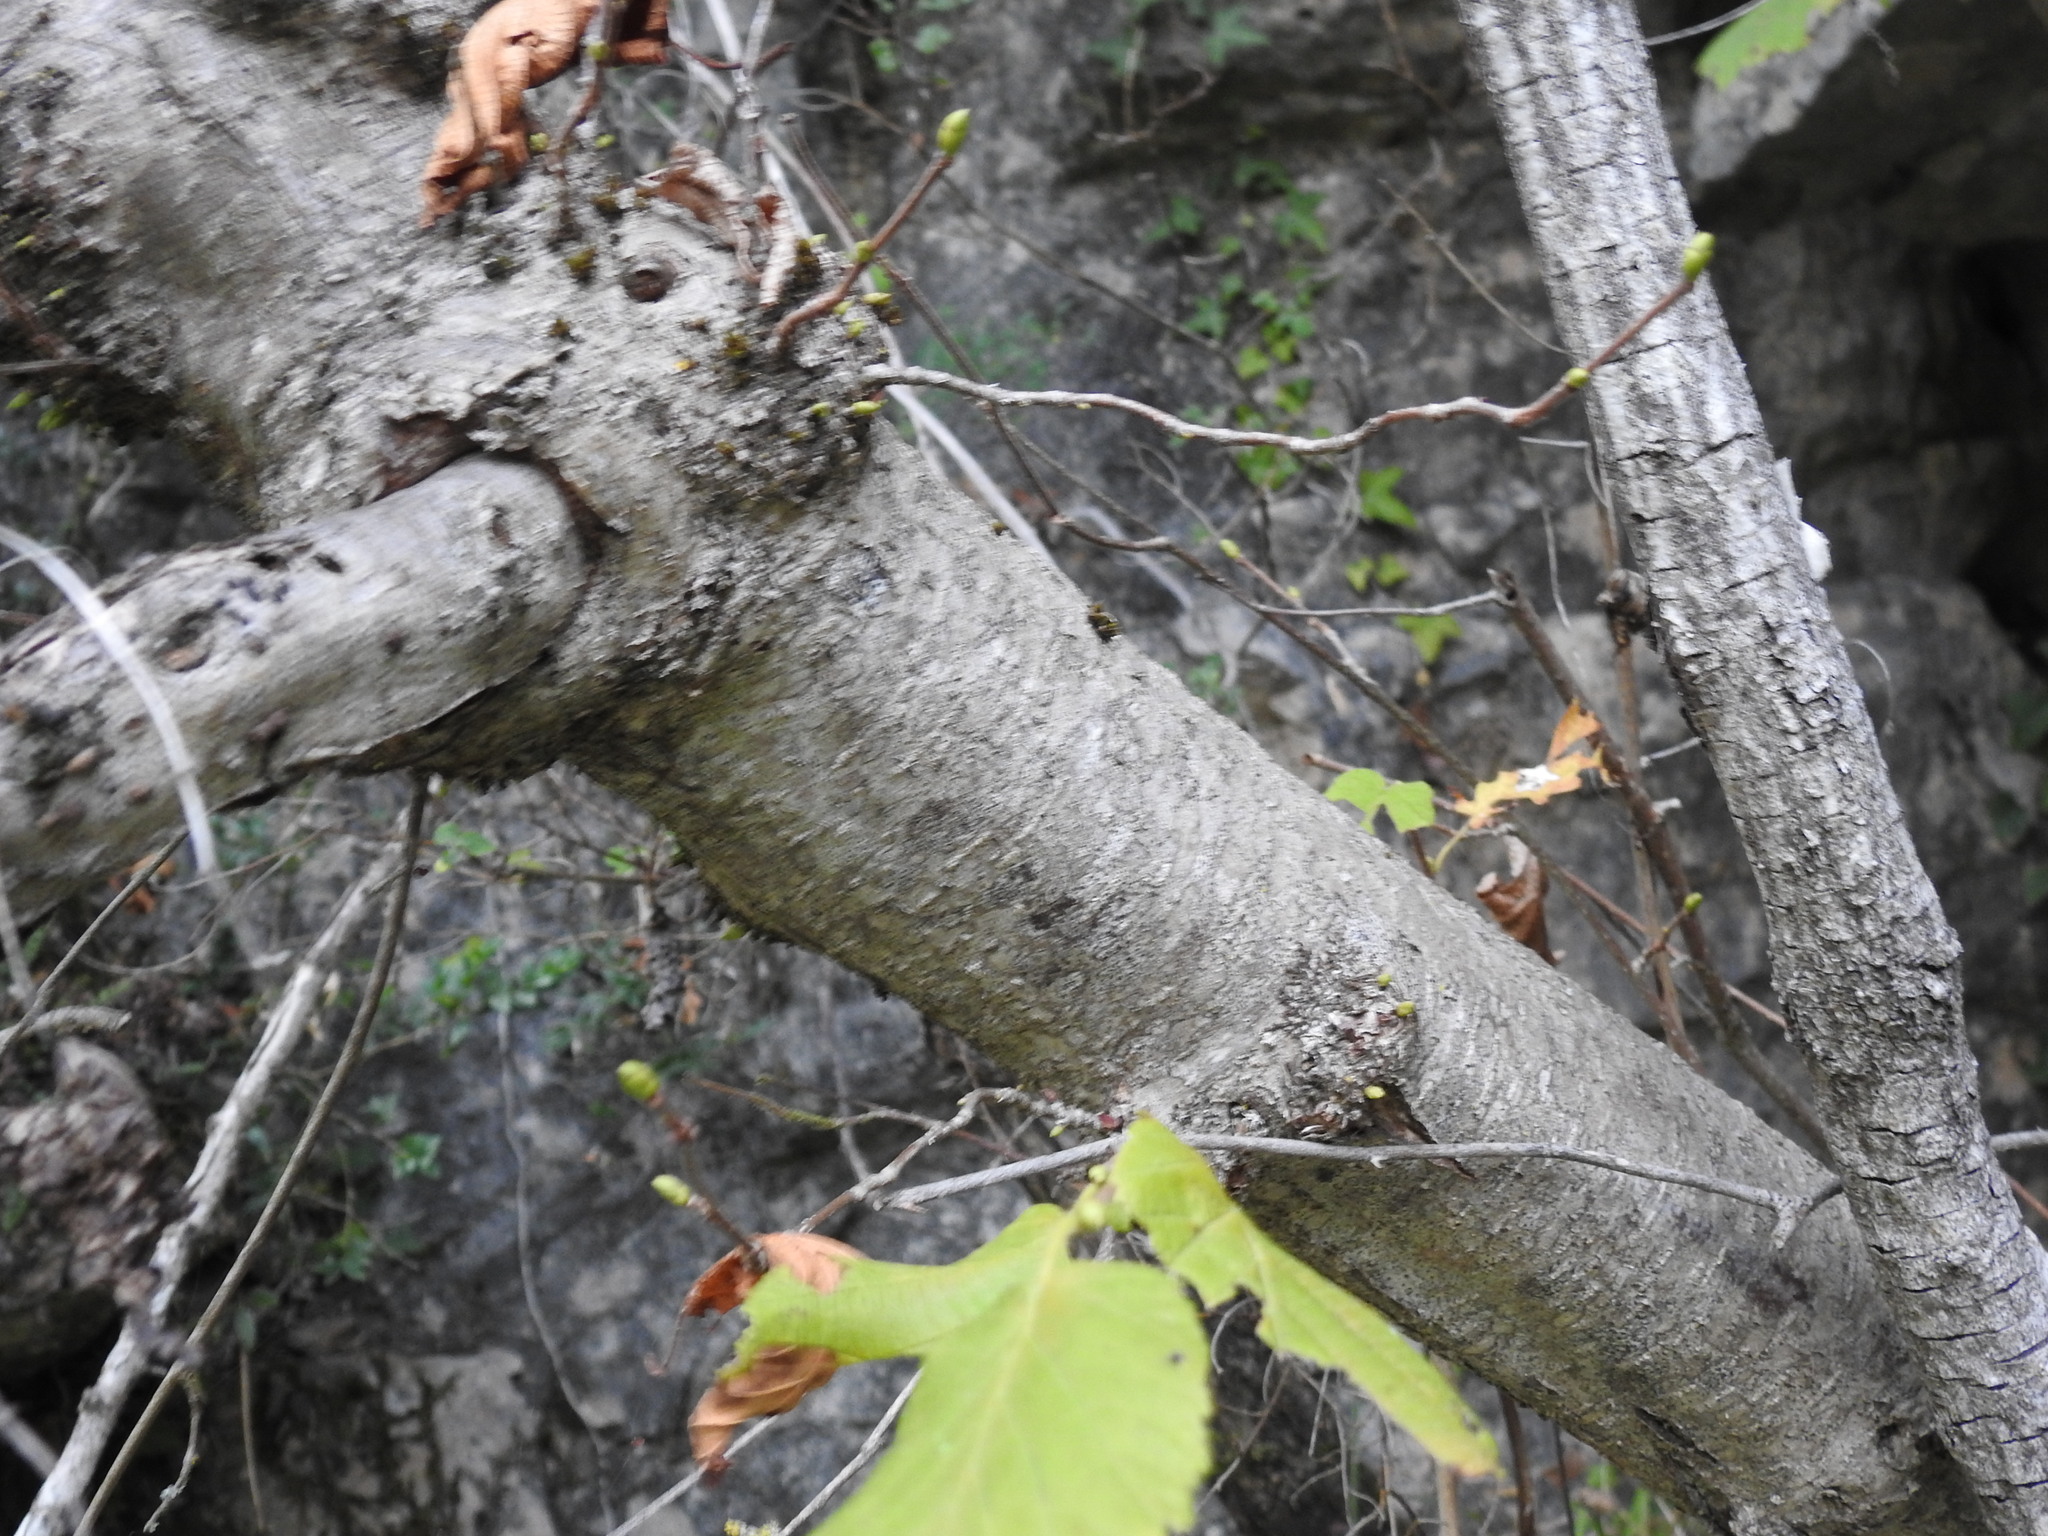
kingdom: Plantae
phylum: Tracheophyta
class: Magnoliopsida
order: Fagales
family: Betulaceae
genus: Corylus
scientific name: Corylus avellana
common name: European hazel
